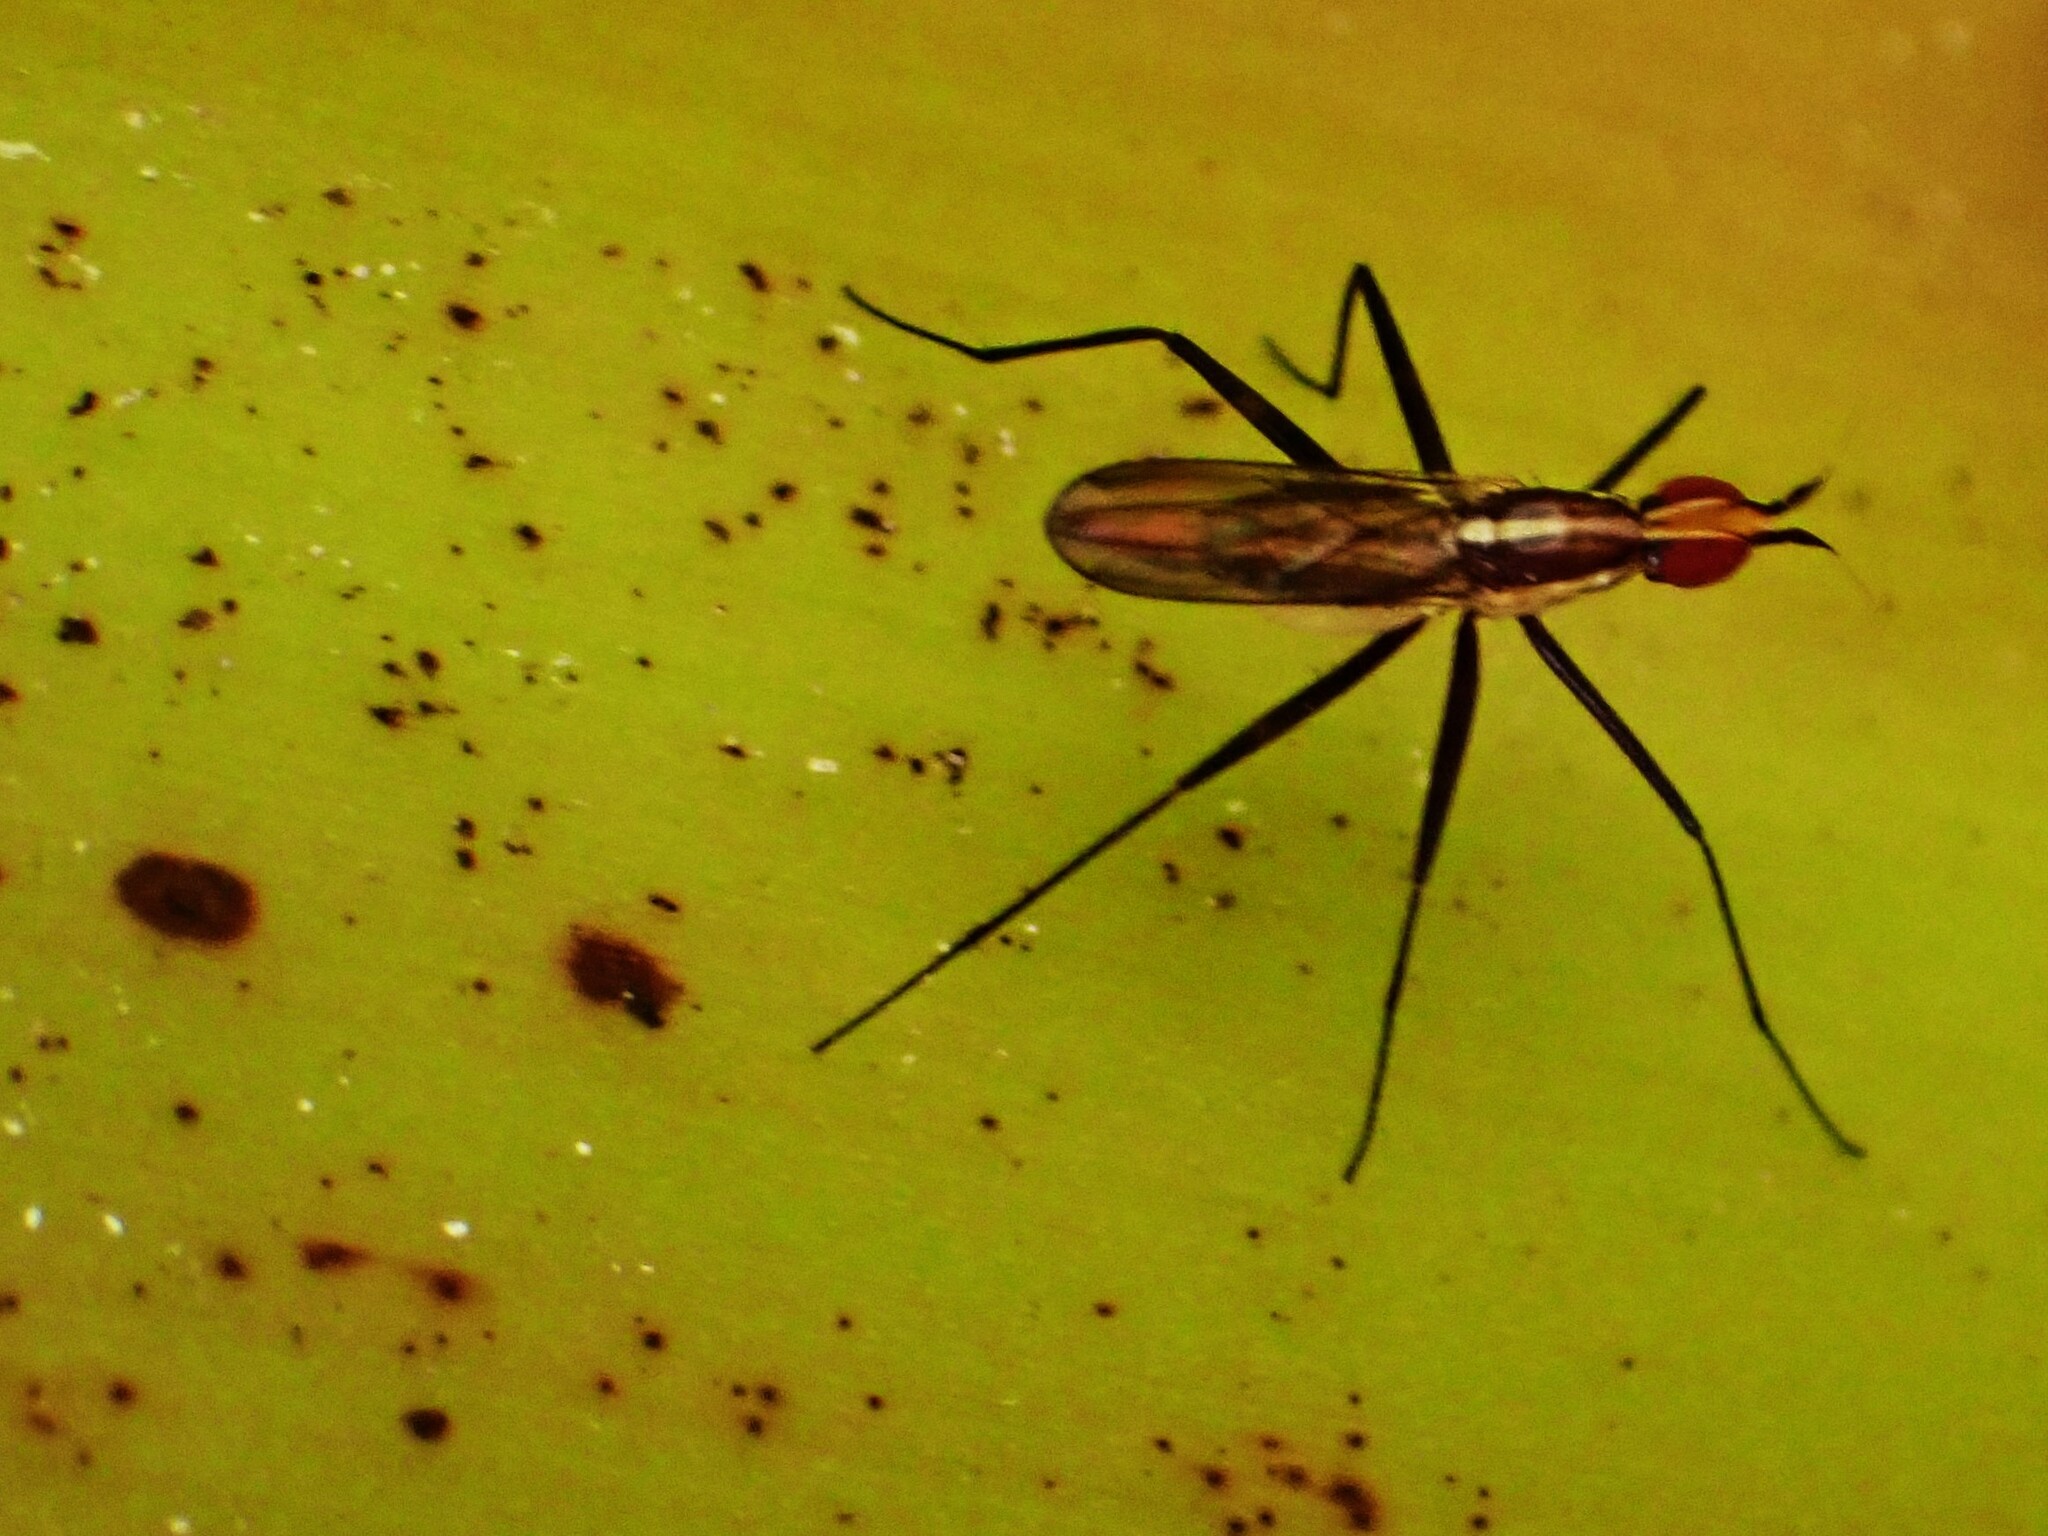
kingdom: Animalia
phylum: Arthropoda
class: Insecta
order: Diptera
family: Neriidae
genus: Telostylinus
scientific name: Telostylinus lineolatus
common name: Banana stalk fly
